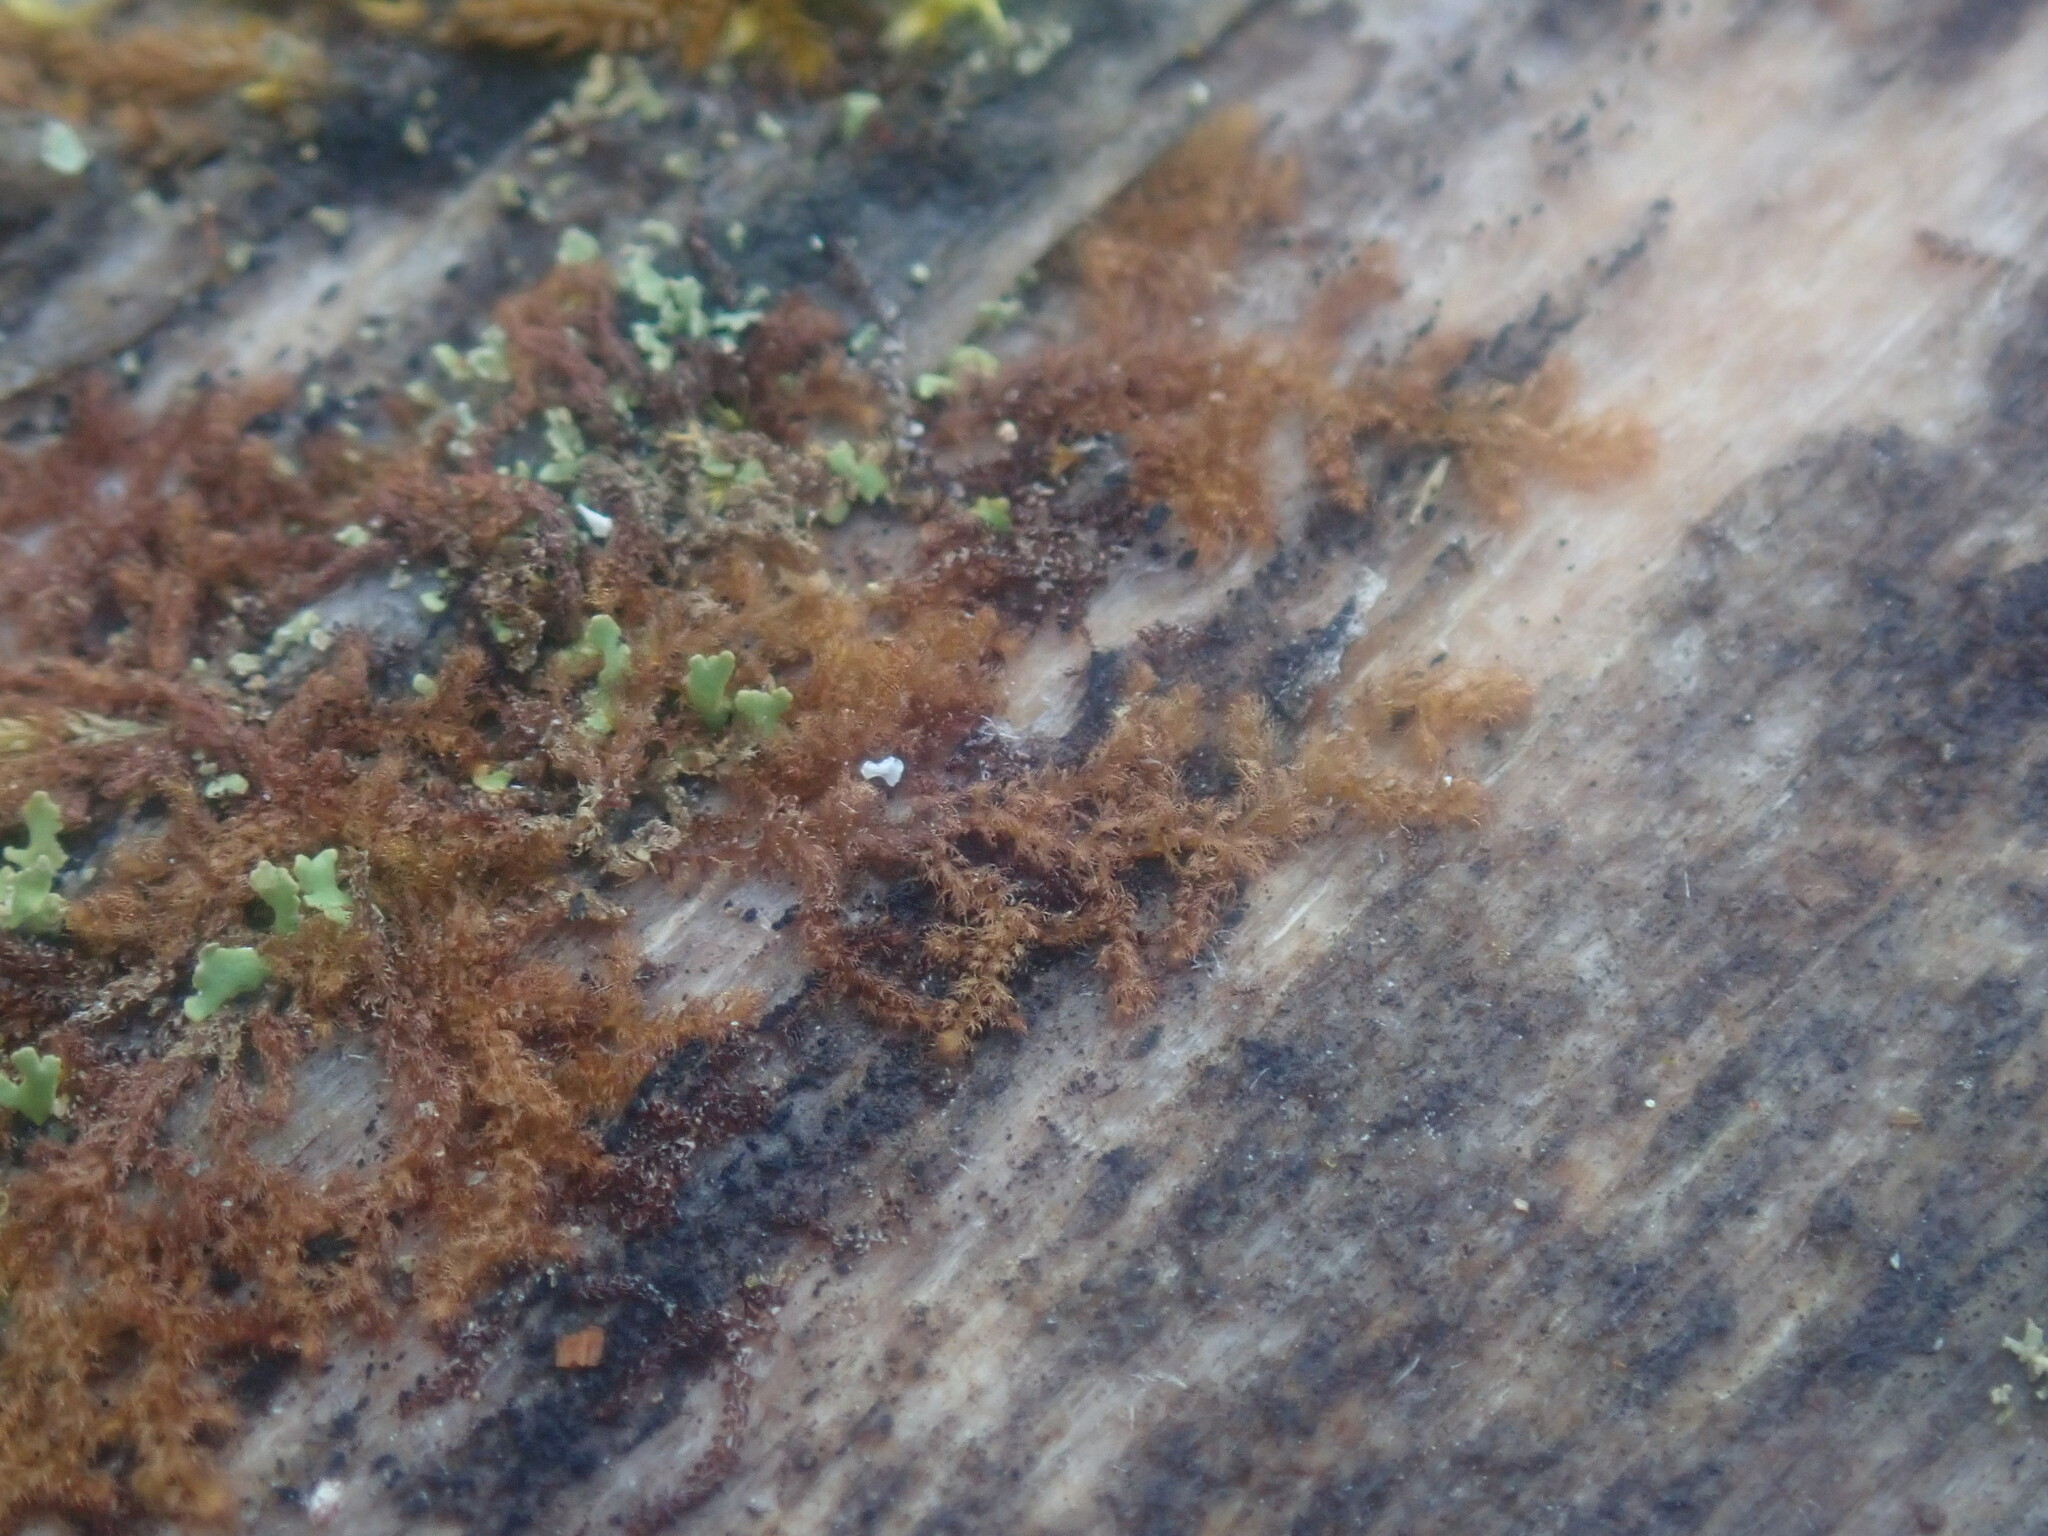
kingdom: Plantae
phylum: Marchantiophyta
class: Jungermanniopsida
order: Ptilidiales
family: Ptilidiaceae
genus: Ptilidium
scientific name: Ptilidium pulcherrimum
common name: Tree fringewort
